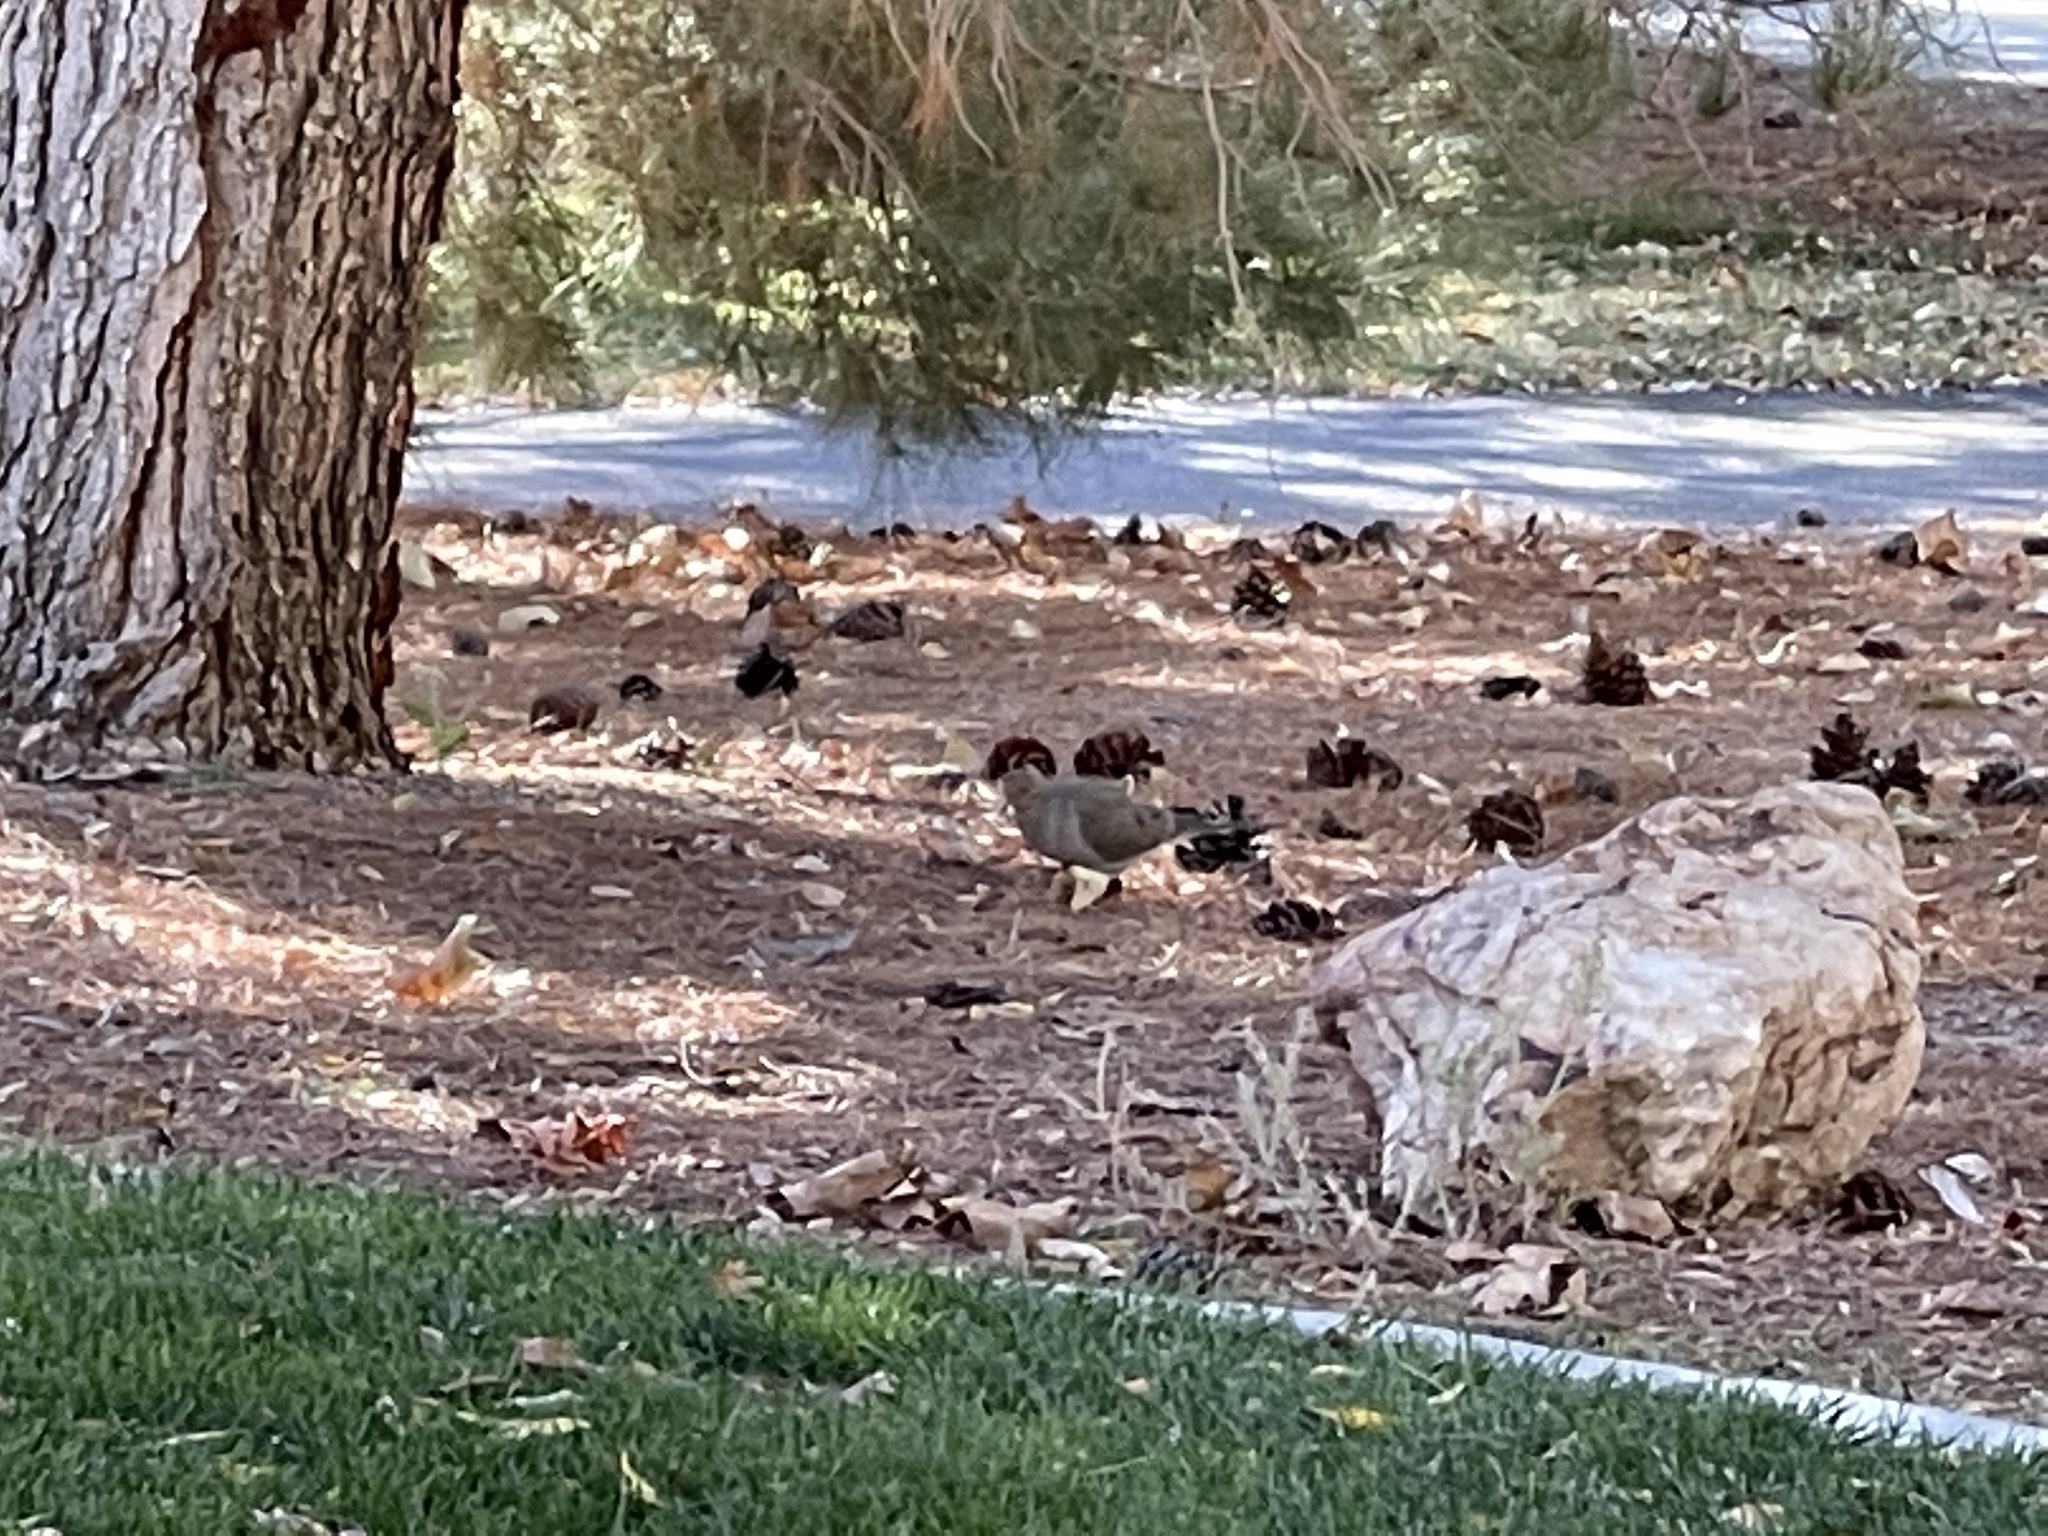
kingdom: Animalia
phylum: Chordata
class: Aves
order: Columbiformes
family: Columbidae
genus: Zenaida
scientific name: Zenaida macroura
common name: Mourning dove
